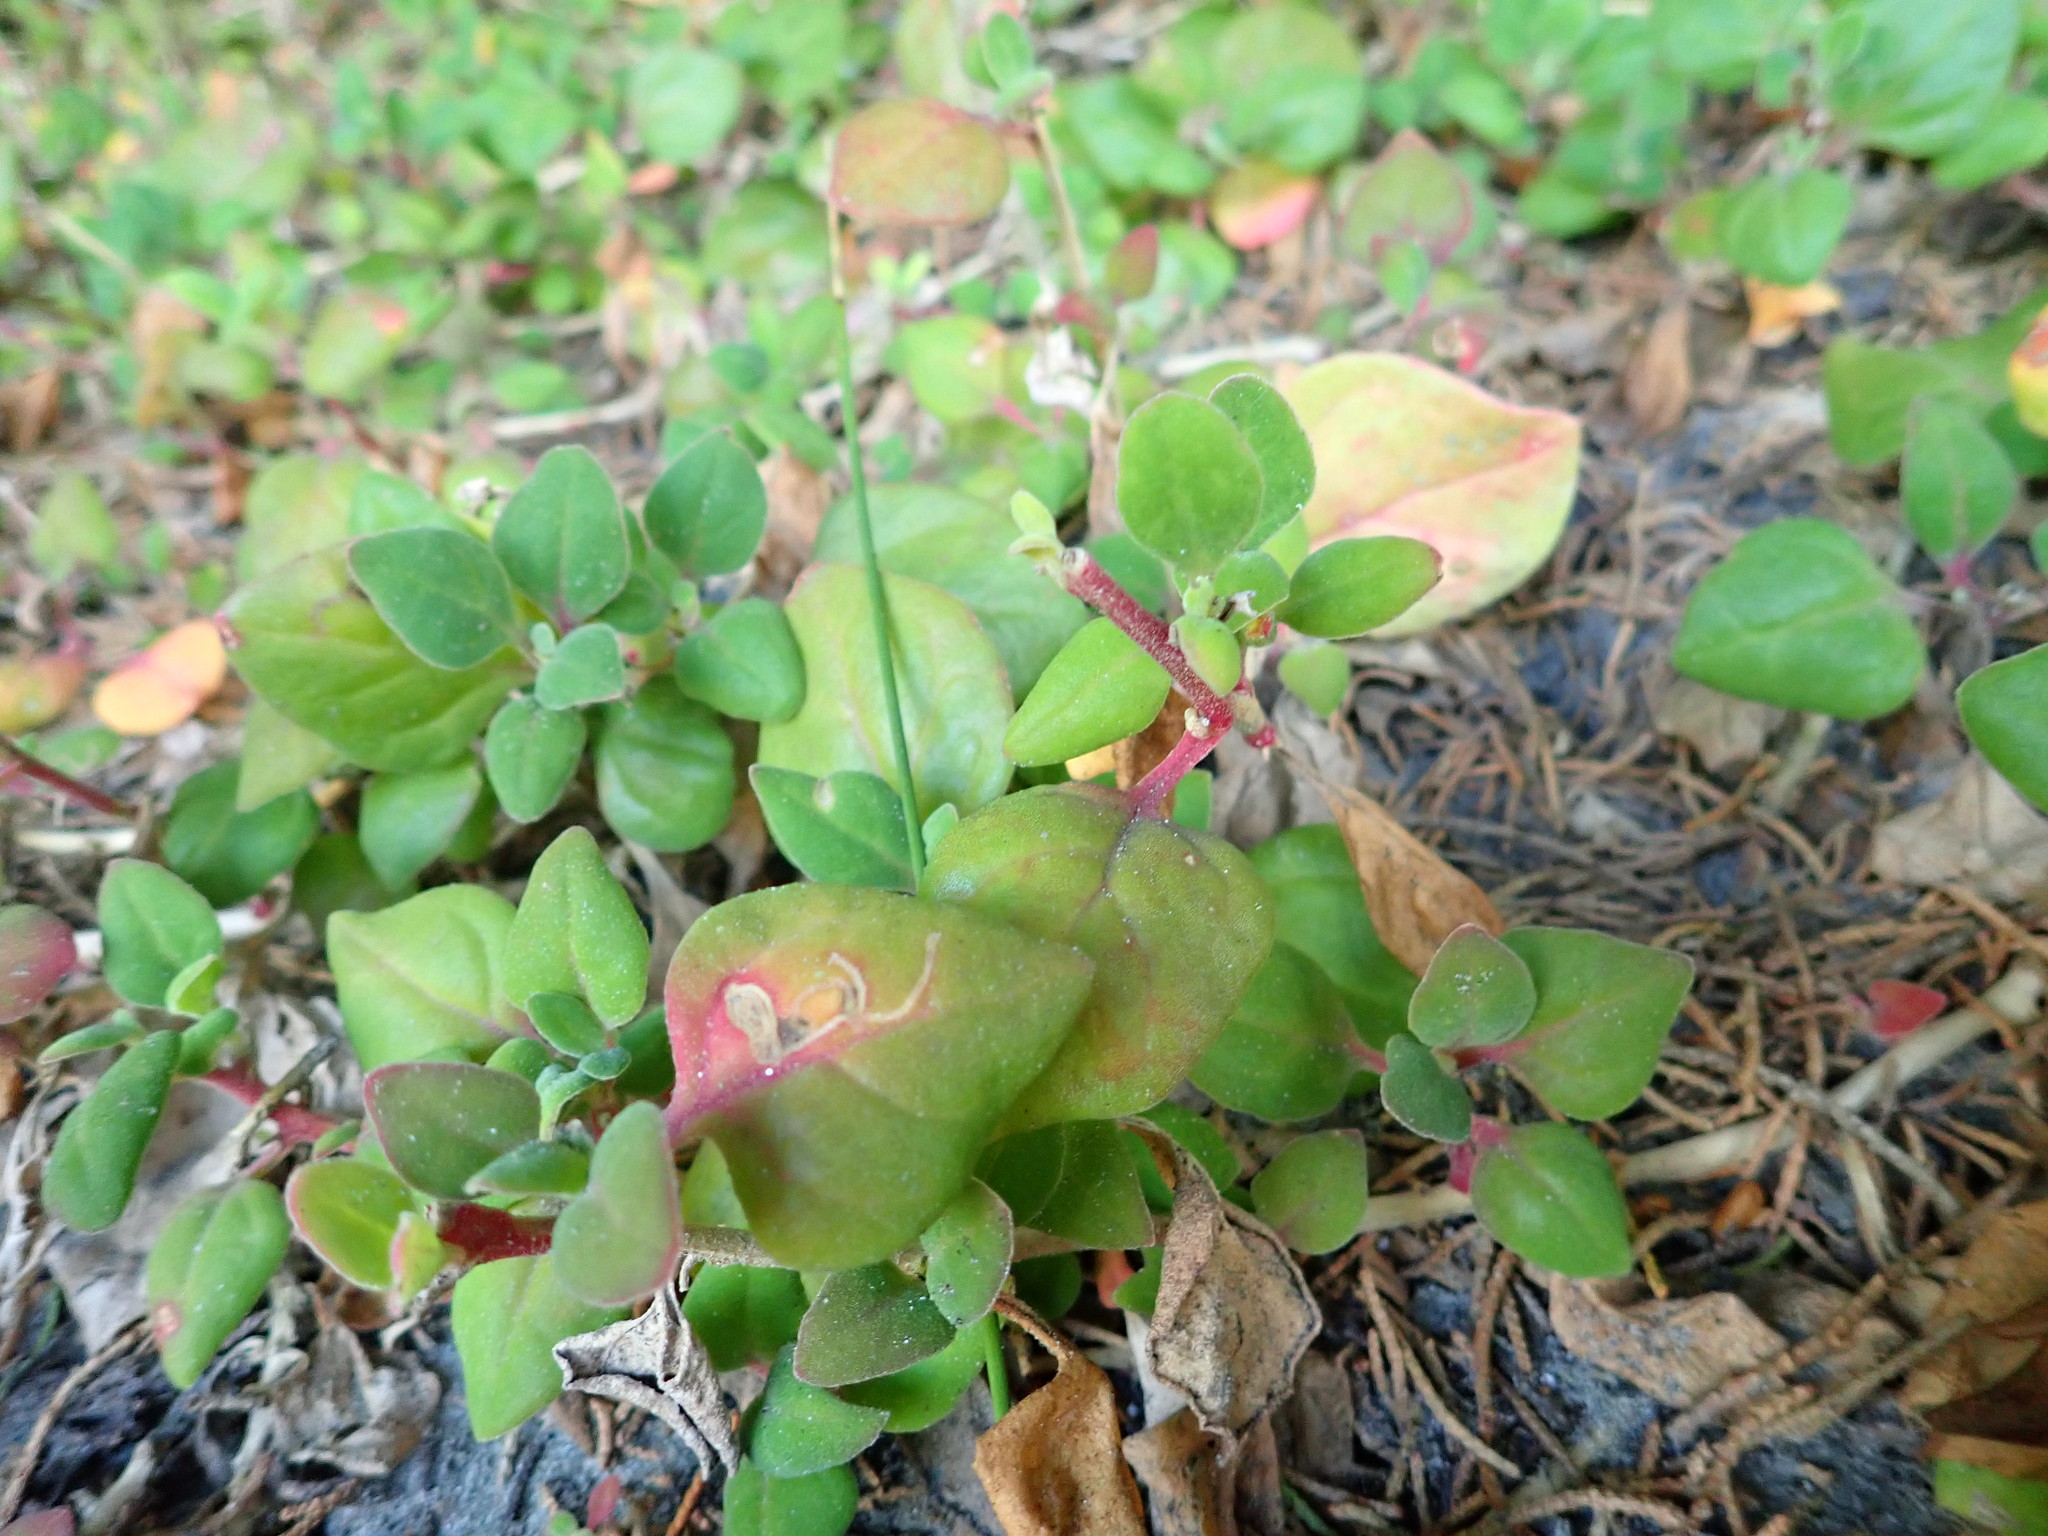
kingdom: Plantae
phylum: Tracheophyta
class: Magnoliopsida
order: Caryophyllales
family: Aizoaceae
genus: Tetragonia
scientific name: Tetragonia implexicoma
